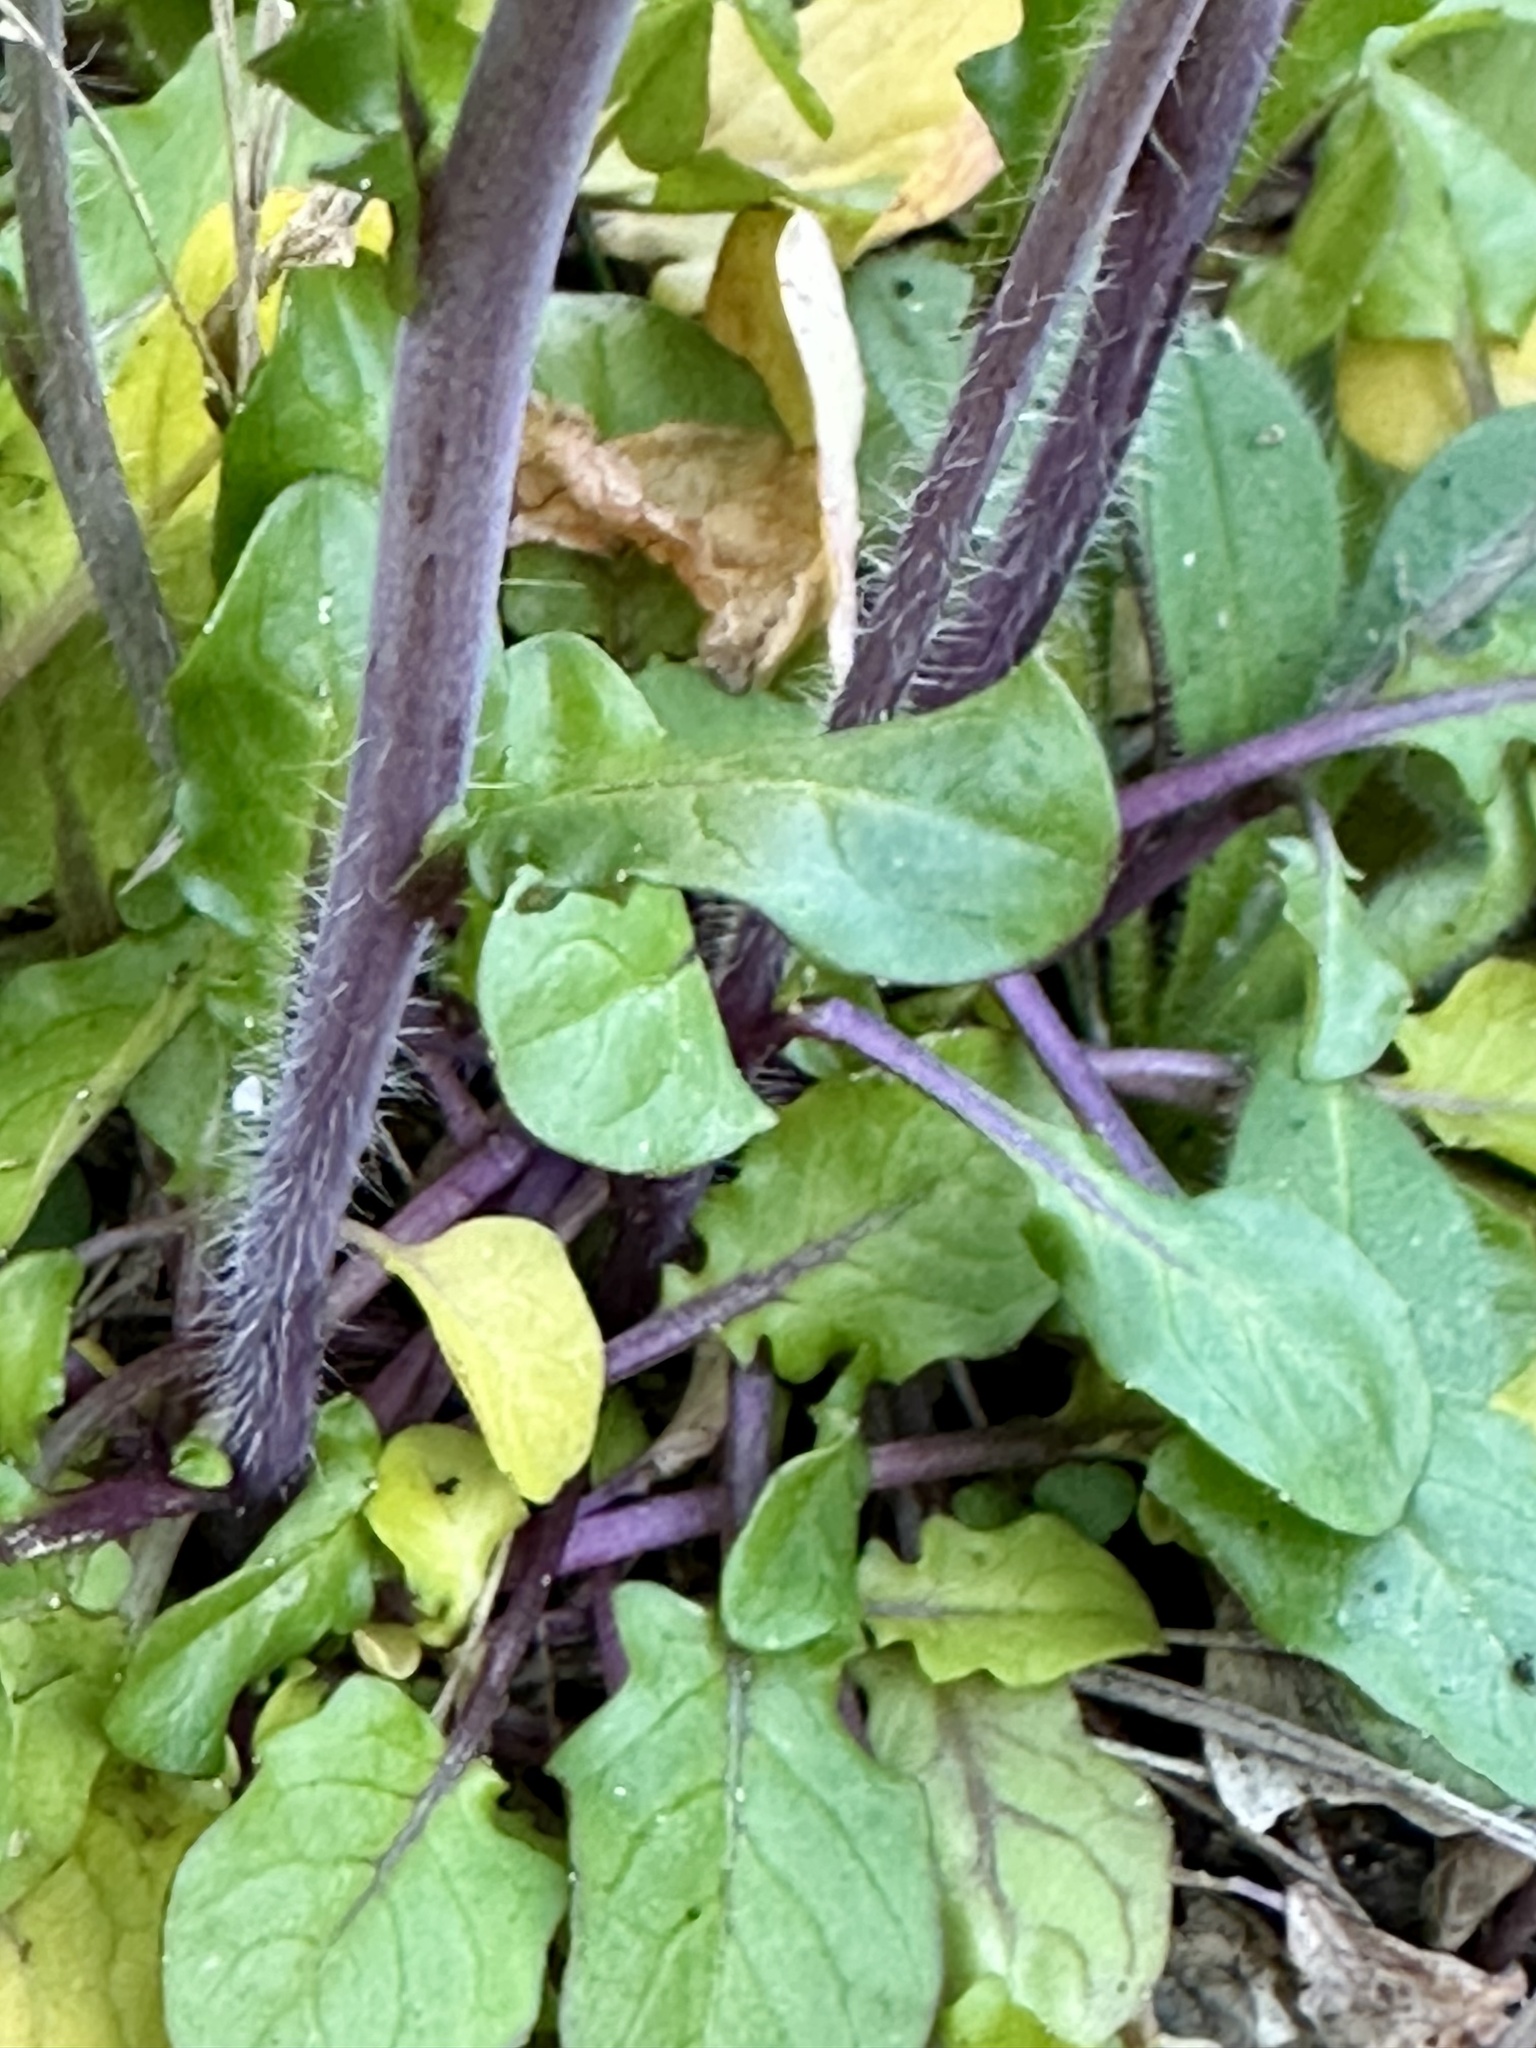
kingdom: Plantae
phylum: Tracheophyta
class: Magnoliopsida
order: Brassicales
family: Brassicaceae
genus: Mummenhoffia
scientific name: Mummenhoffia alliacea
